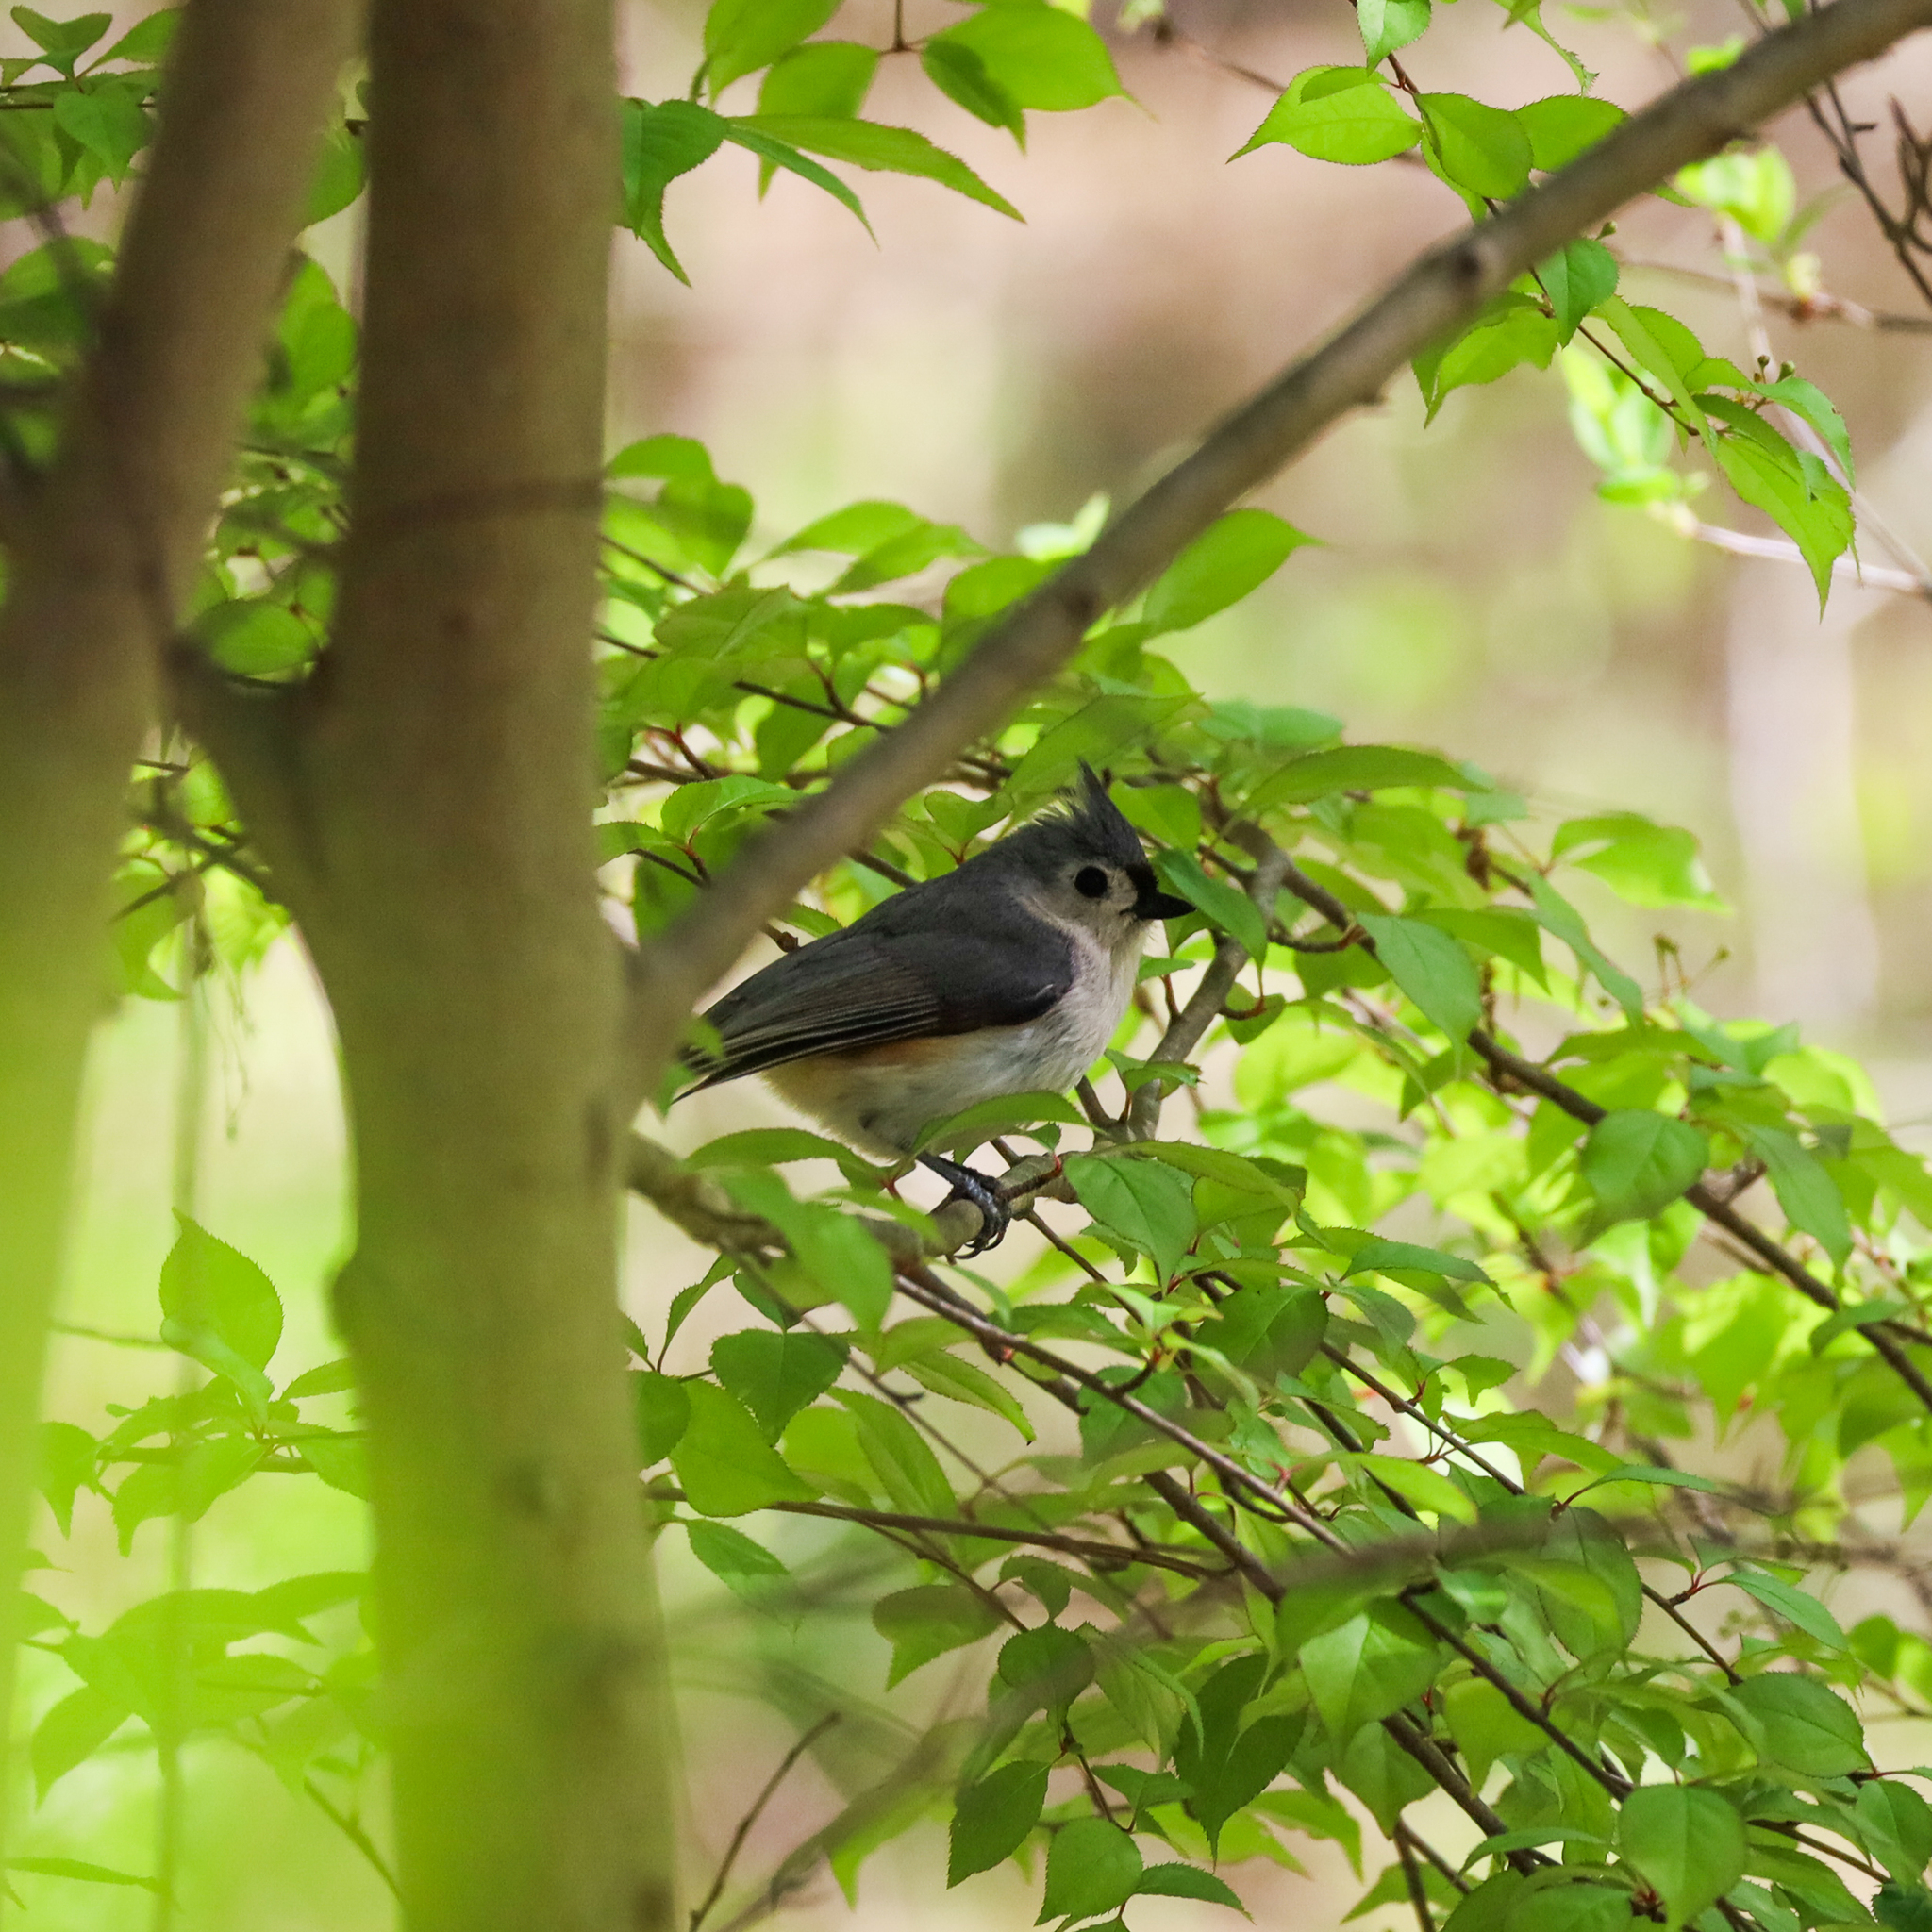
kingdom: Animalia
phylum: Chordata
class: Aves
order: Passeriformes
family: Paridae
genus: Baeolophus
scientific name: Baeolophus bicolor
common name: Tufted titmouse
